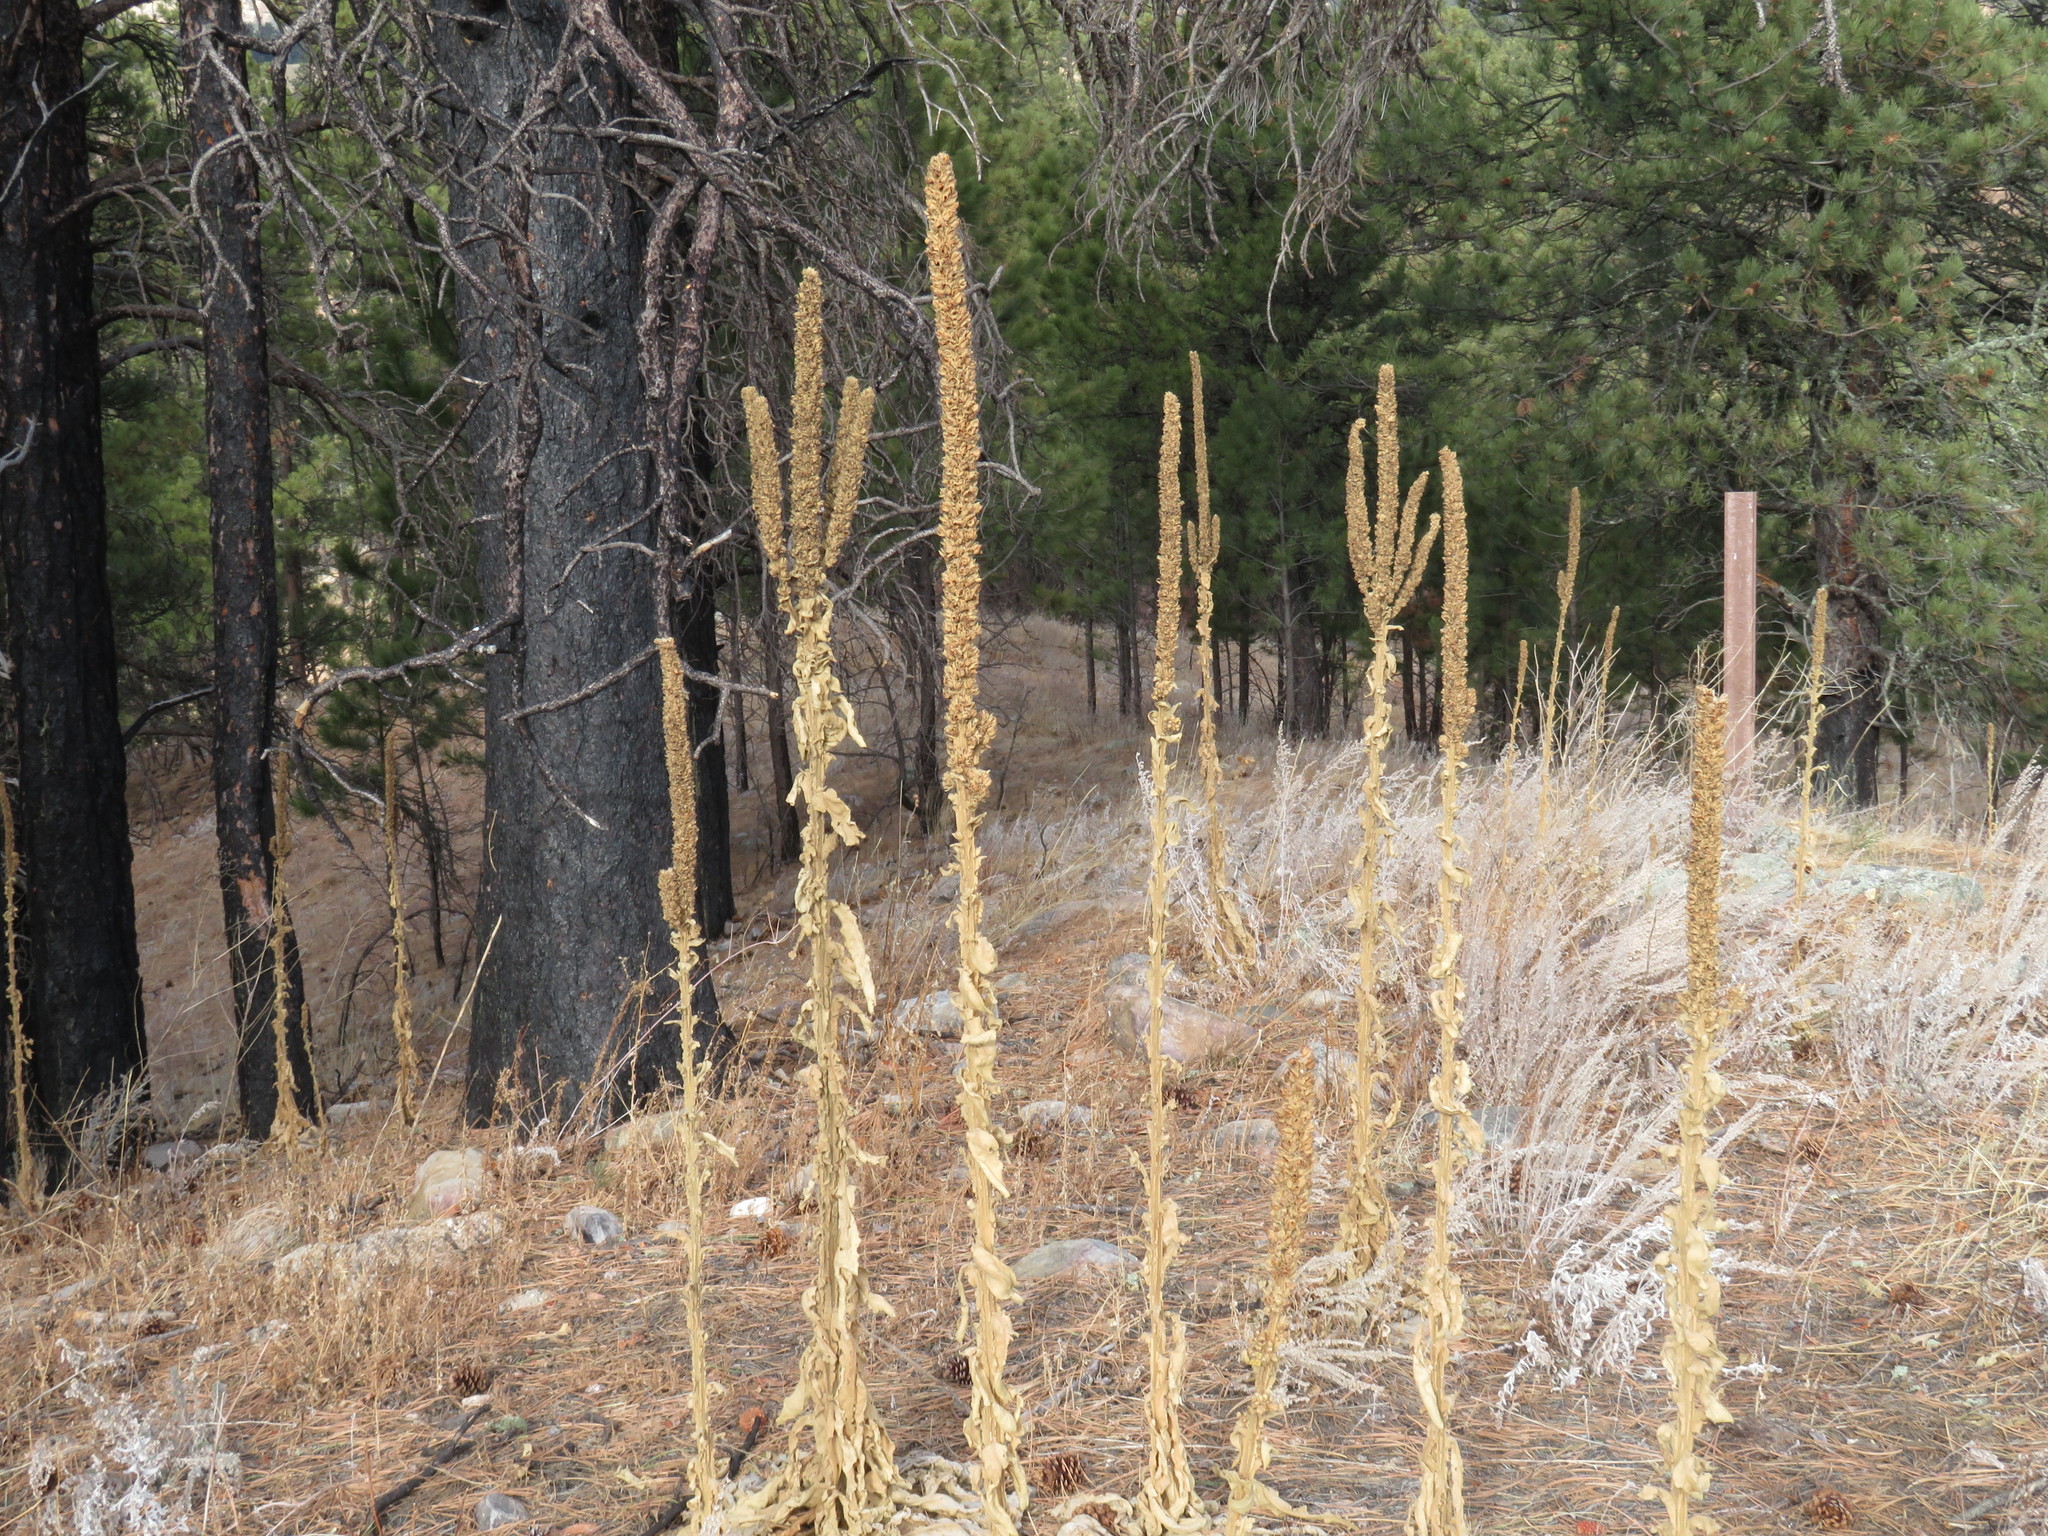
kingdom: Plantae
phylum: Tracheophyta
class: Magnoliopsida
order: Lamiales
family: Scrophulariaceae
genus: Verbascum
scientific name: Verbascum thapsus
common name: Common mullein
